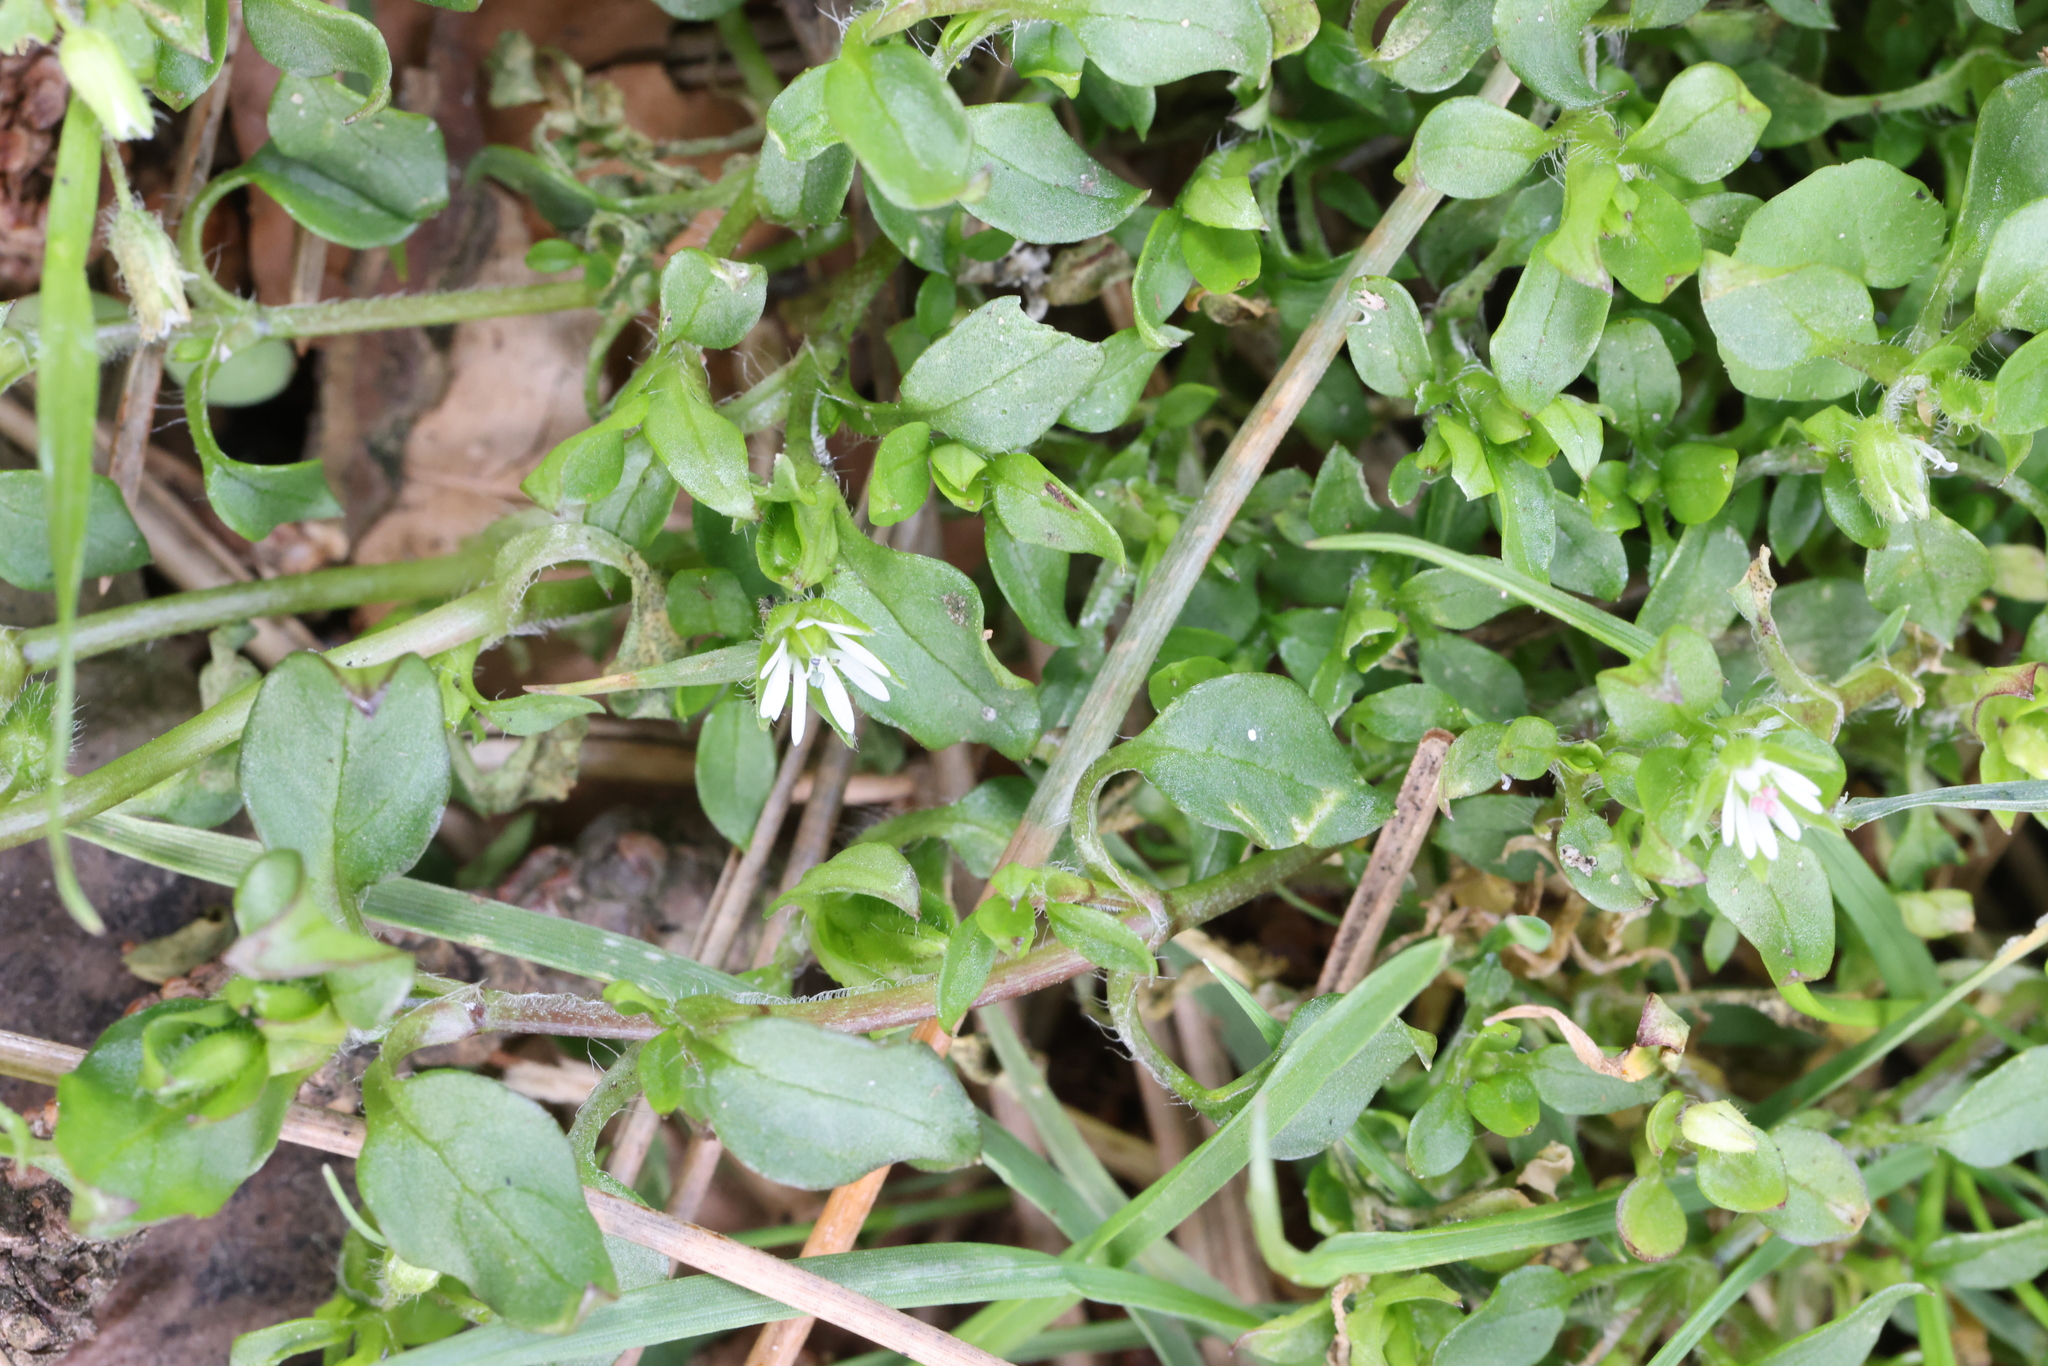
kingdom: Plantae
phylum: Tracheophyta
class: Magnoliopsida
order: Caryophyllales
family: Caryophyllaceae
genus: Stellaria
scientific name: Stellaria media
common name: Common chickweed
